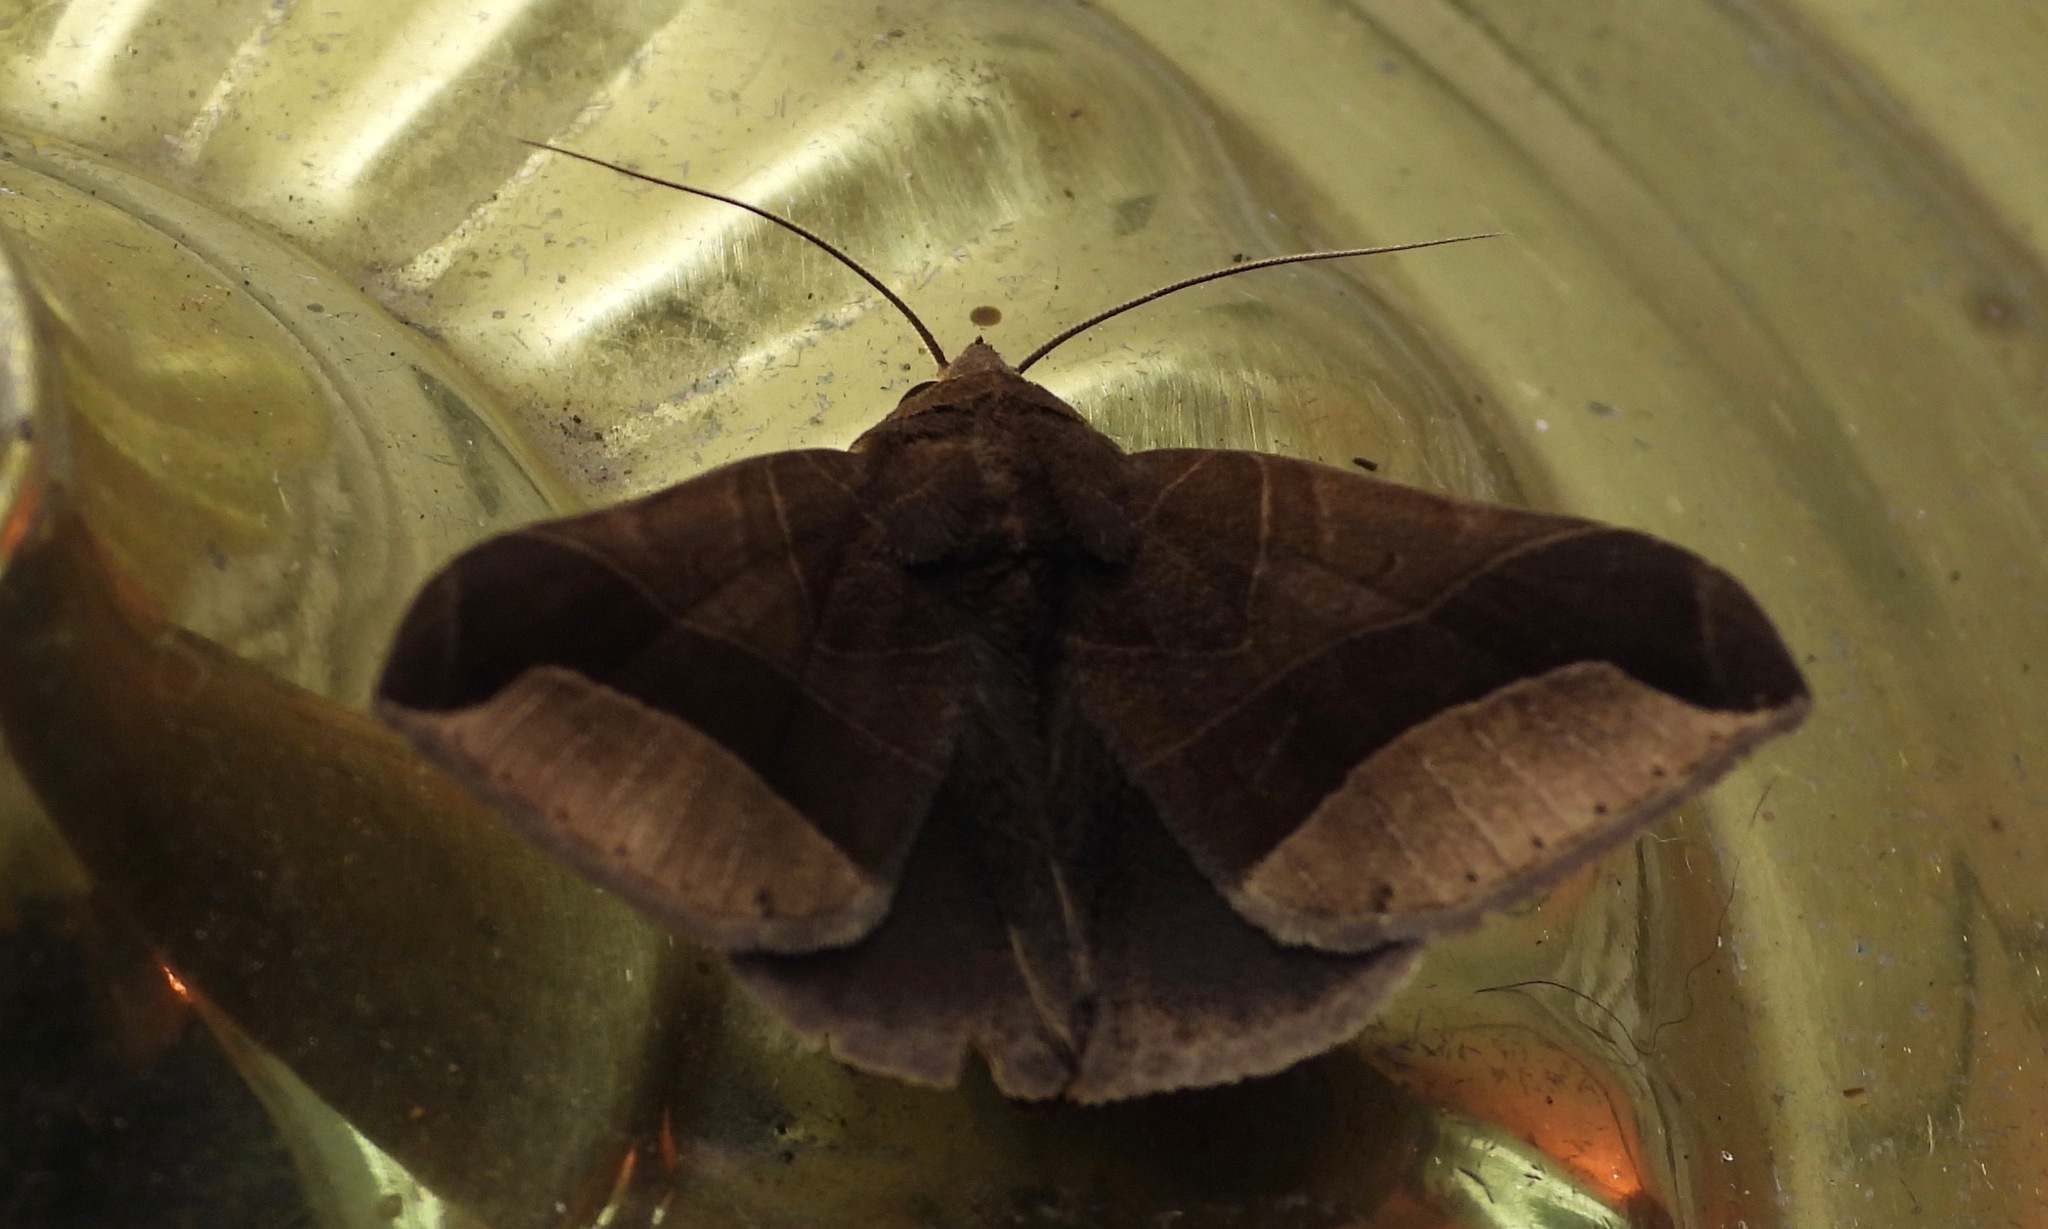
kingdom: Animalia
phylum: Arthropoda
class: Insecta
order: Lepidoptera
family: Erebidae
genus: Pseudophisma
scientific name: Pseudophisma aeolida
